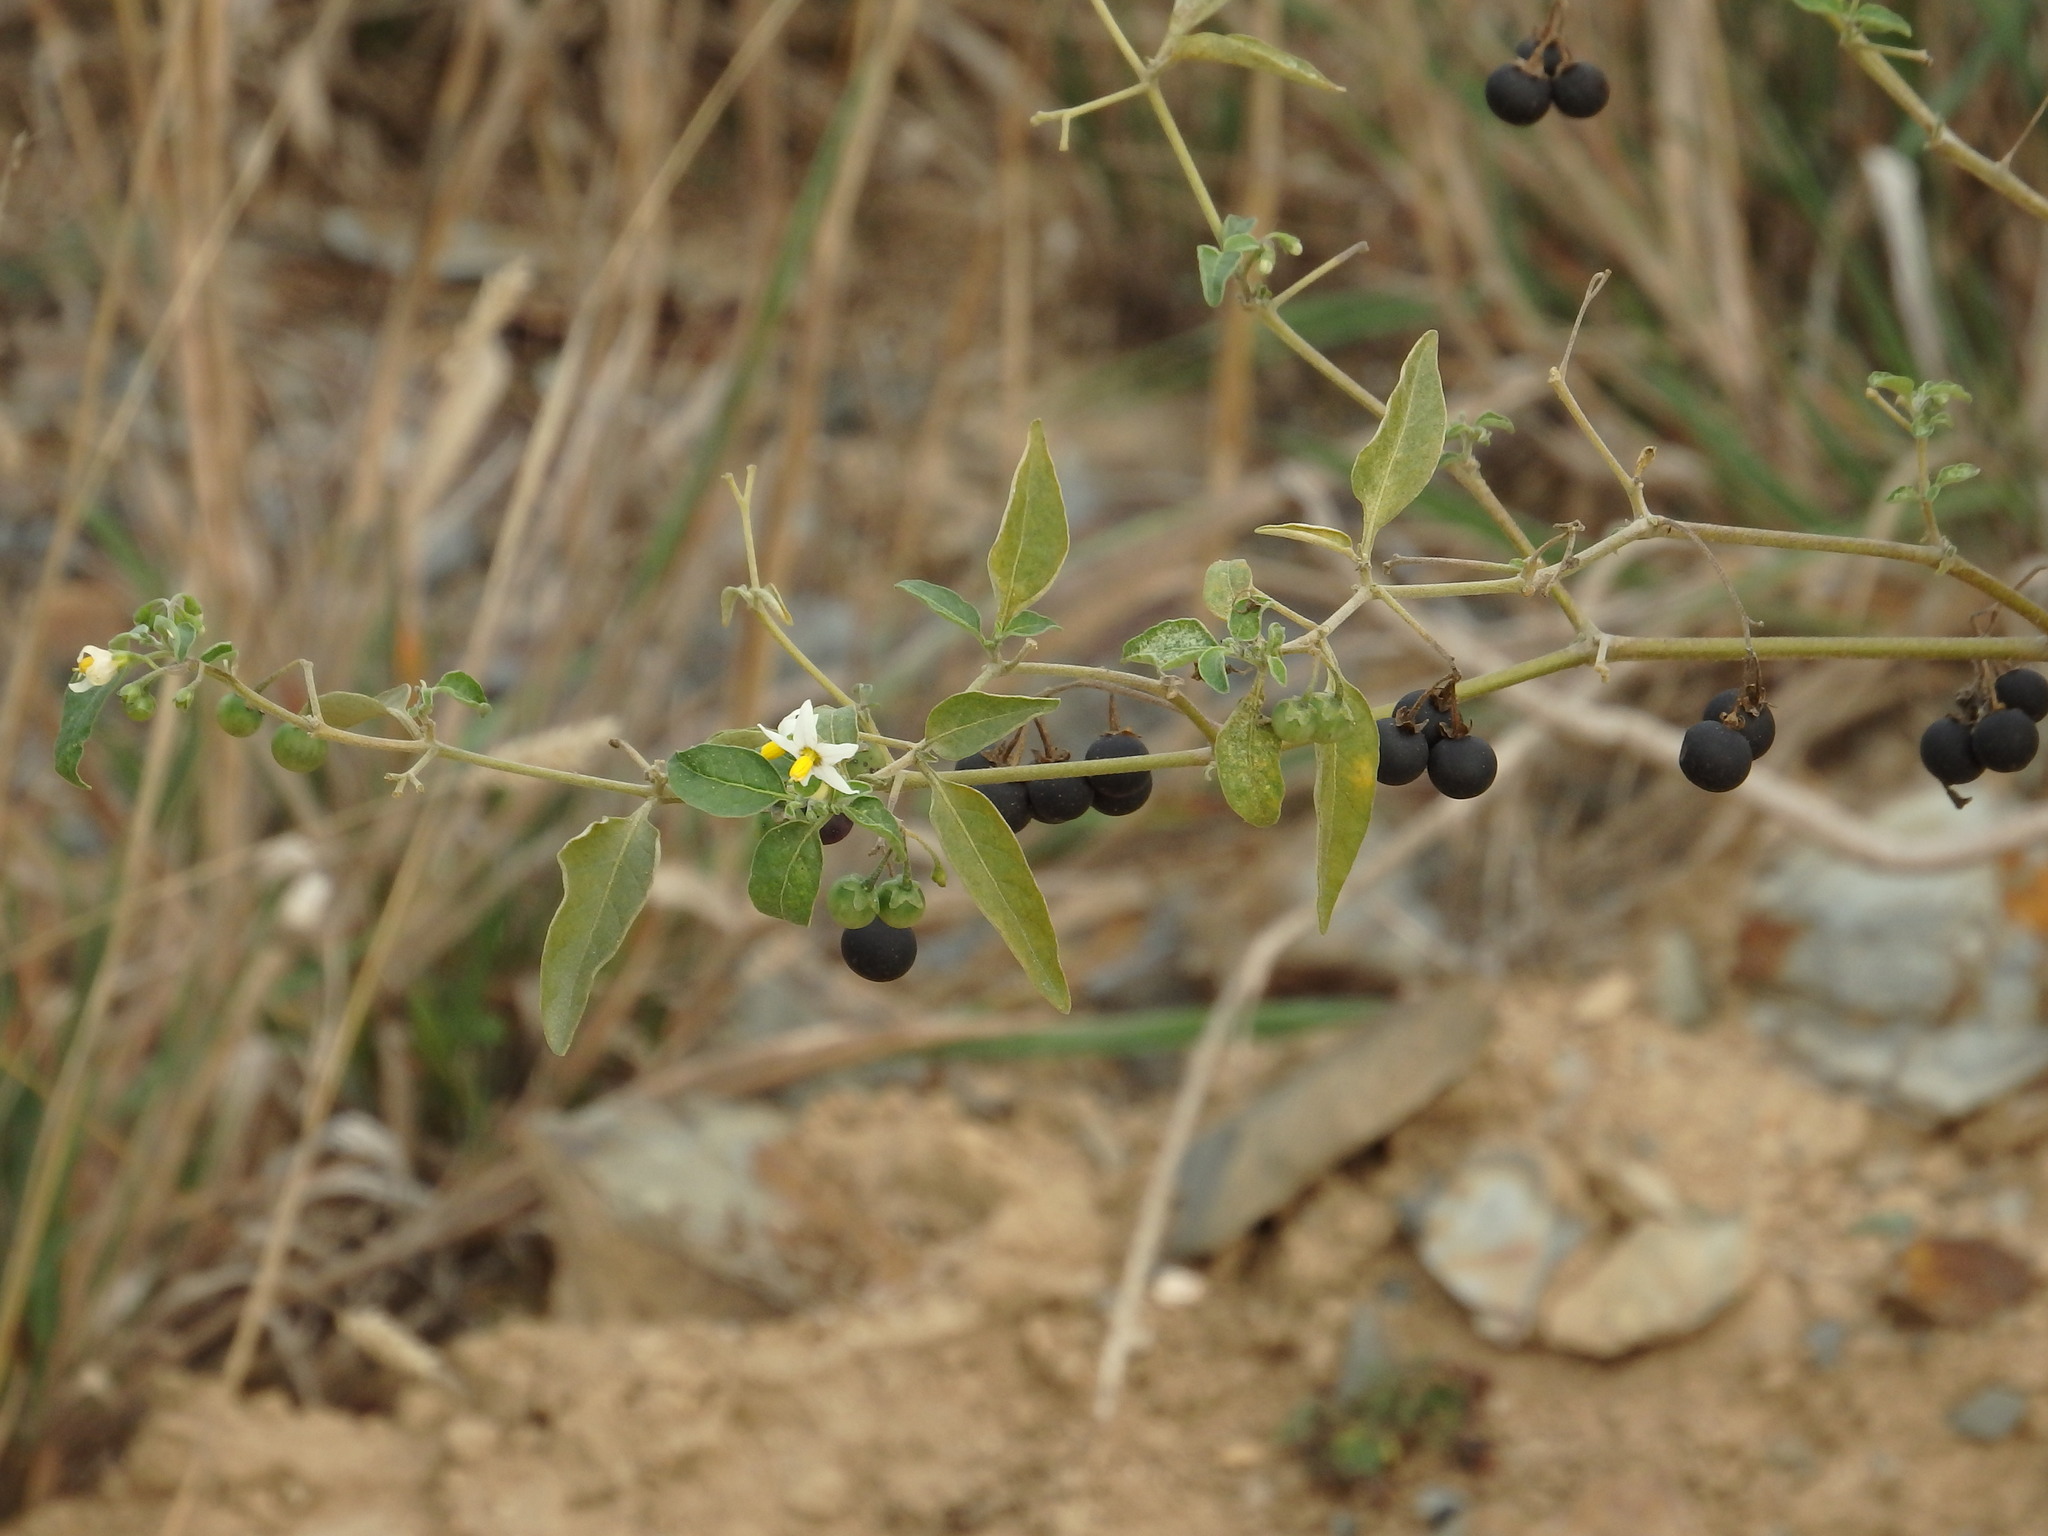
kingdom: Plantae
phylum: Tracheophyta
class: Magnoliopsida
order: Solanales
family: Solanaceae
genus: Solanum
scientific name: Solanum chenopodioides
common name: Tall nightshade
